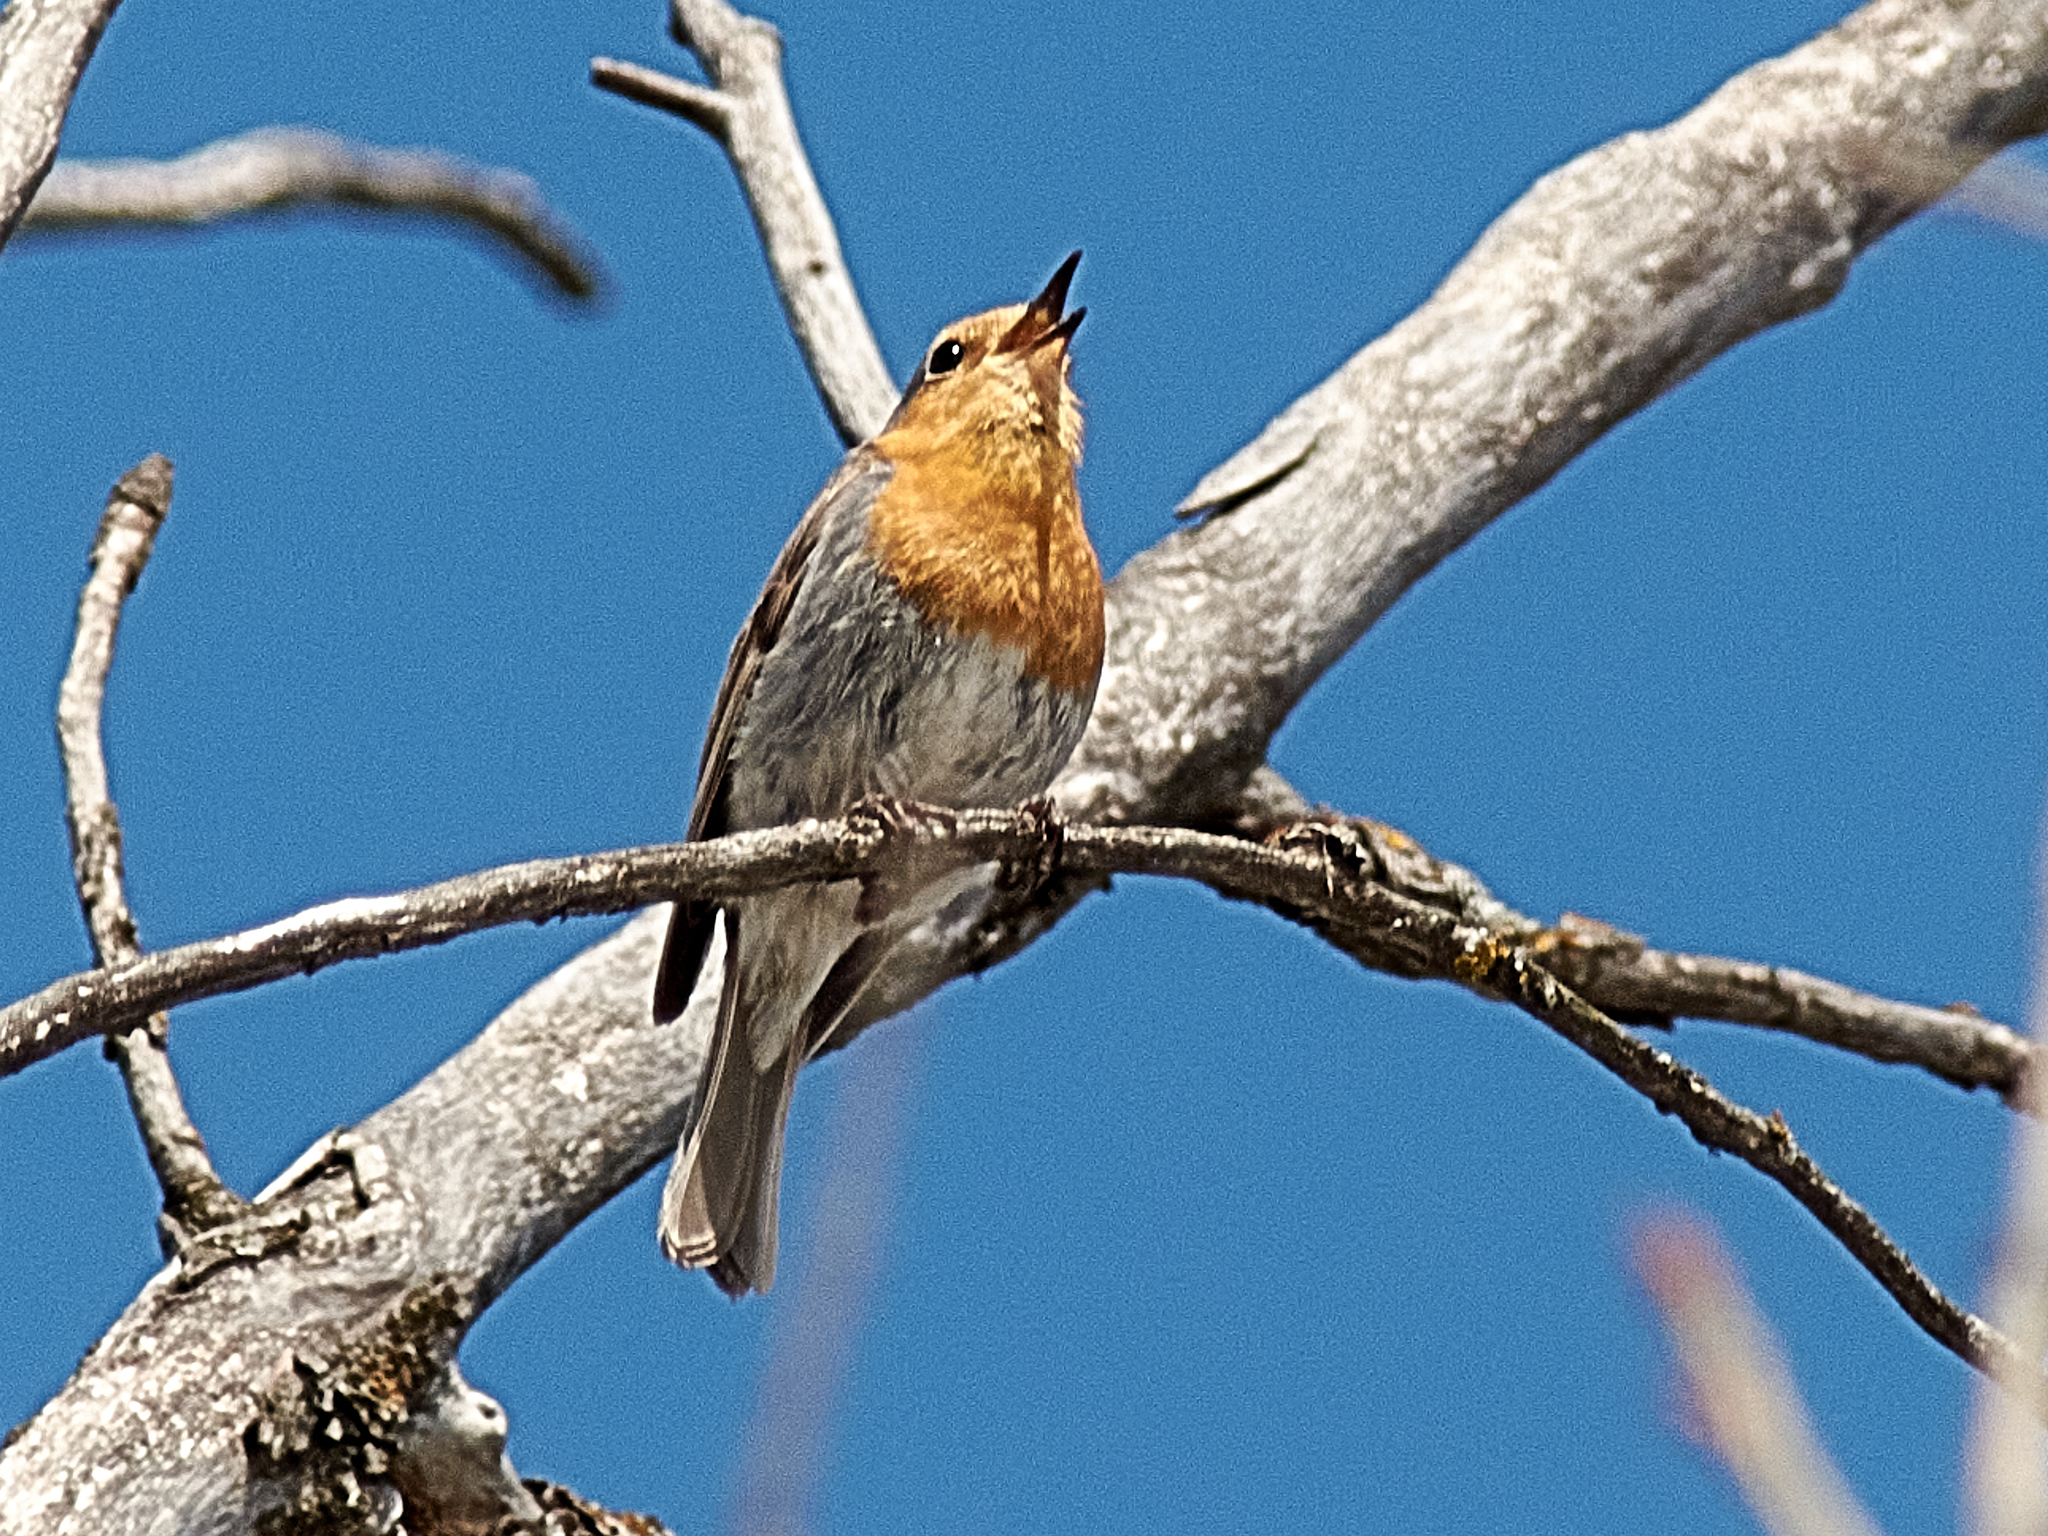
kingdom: Animalia
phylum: Chordata
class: Aves
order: Passeriformes
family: Muscicapidae
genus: Erithacus
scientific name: Erithacus rubecula
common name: European robin
